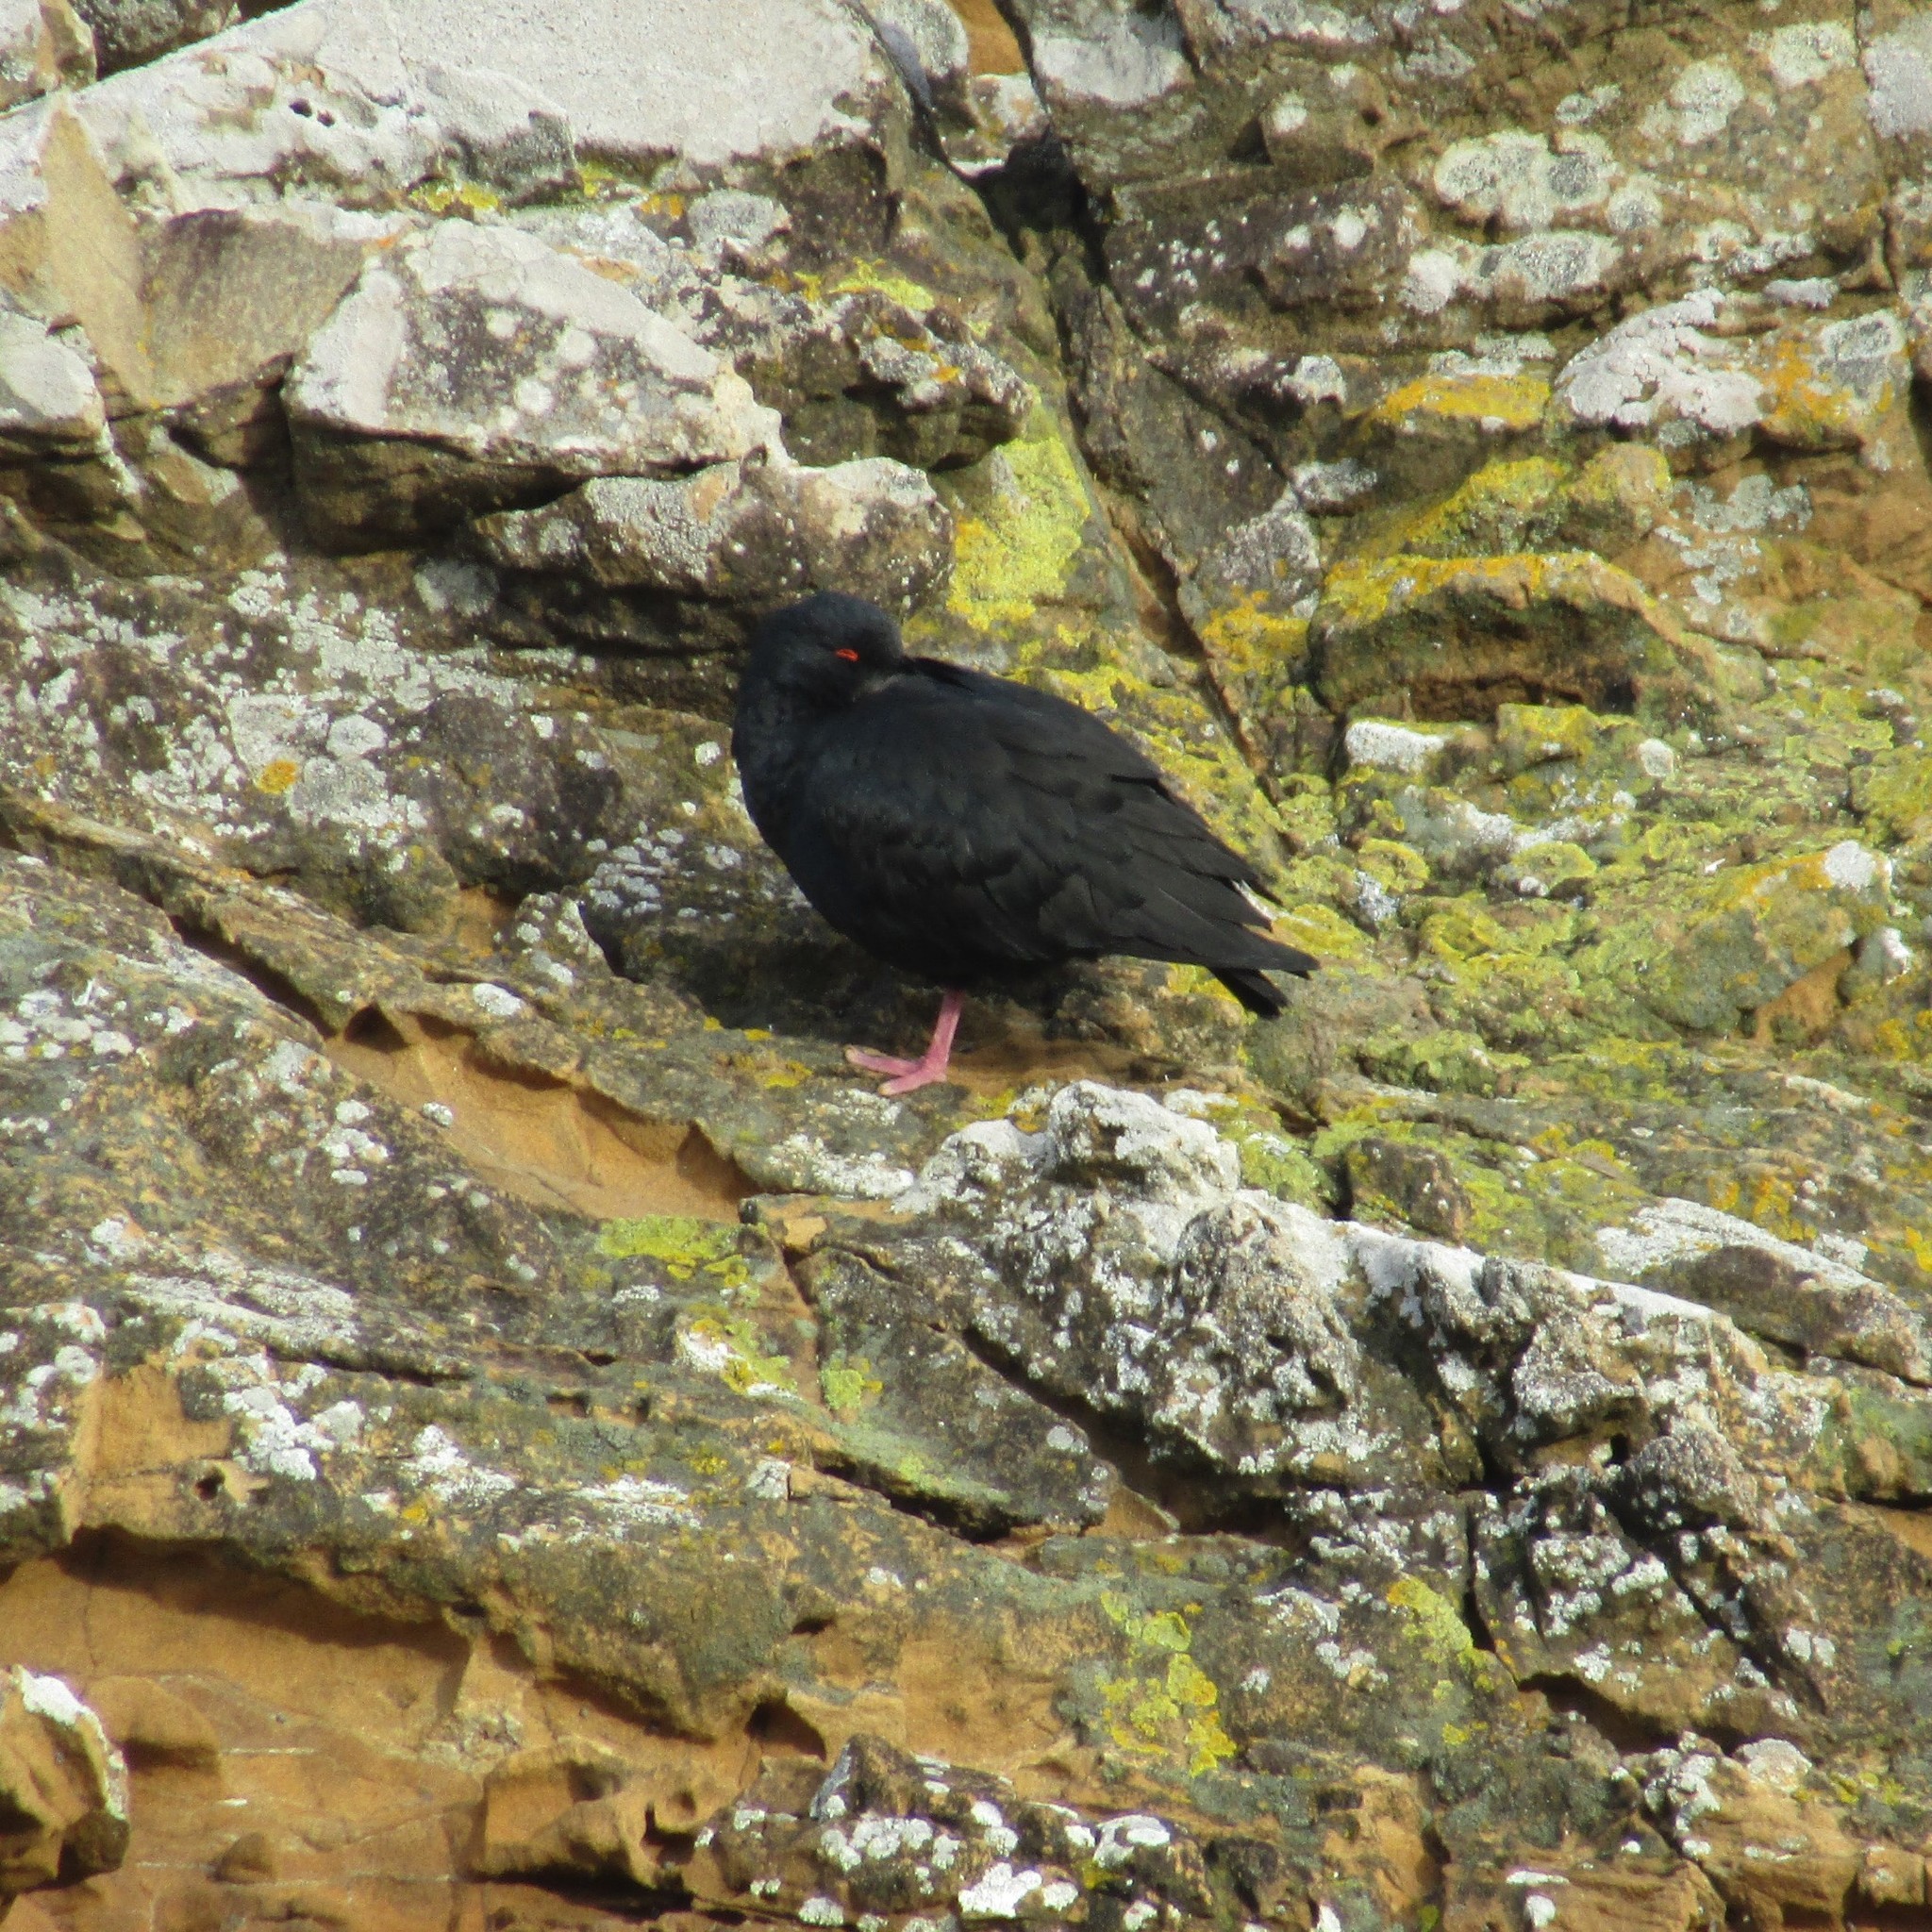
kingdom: Animalia
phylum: Chordata
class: Aves
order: Charadriiformes
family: Haematopodidae
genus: Haematopus
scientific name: Haematopus unicolor
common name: Variable oystercatcher
